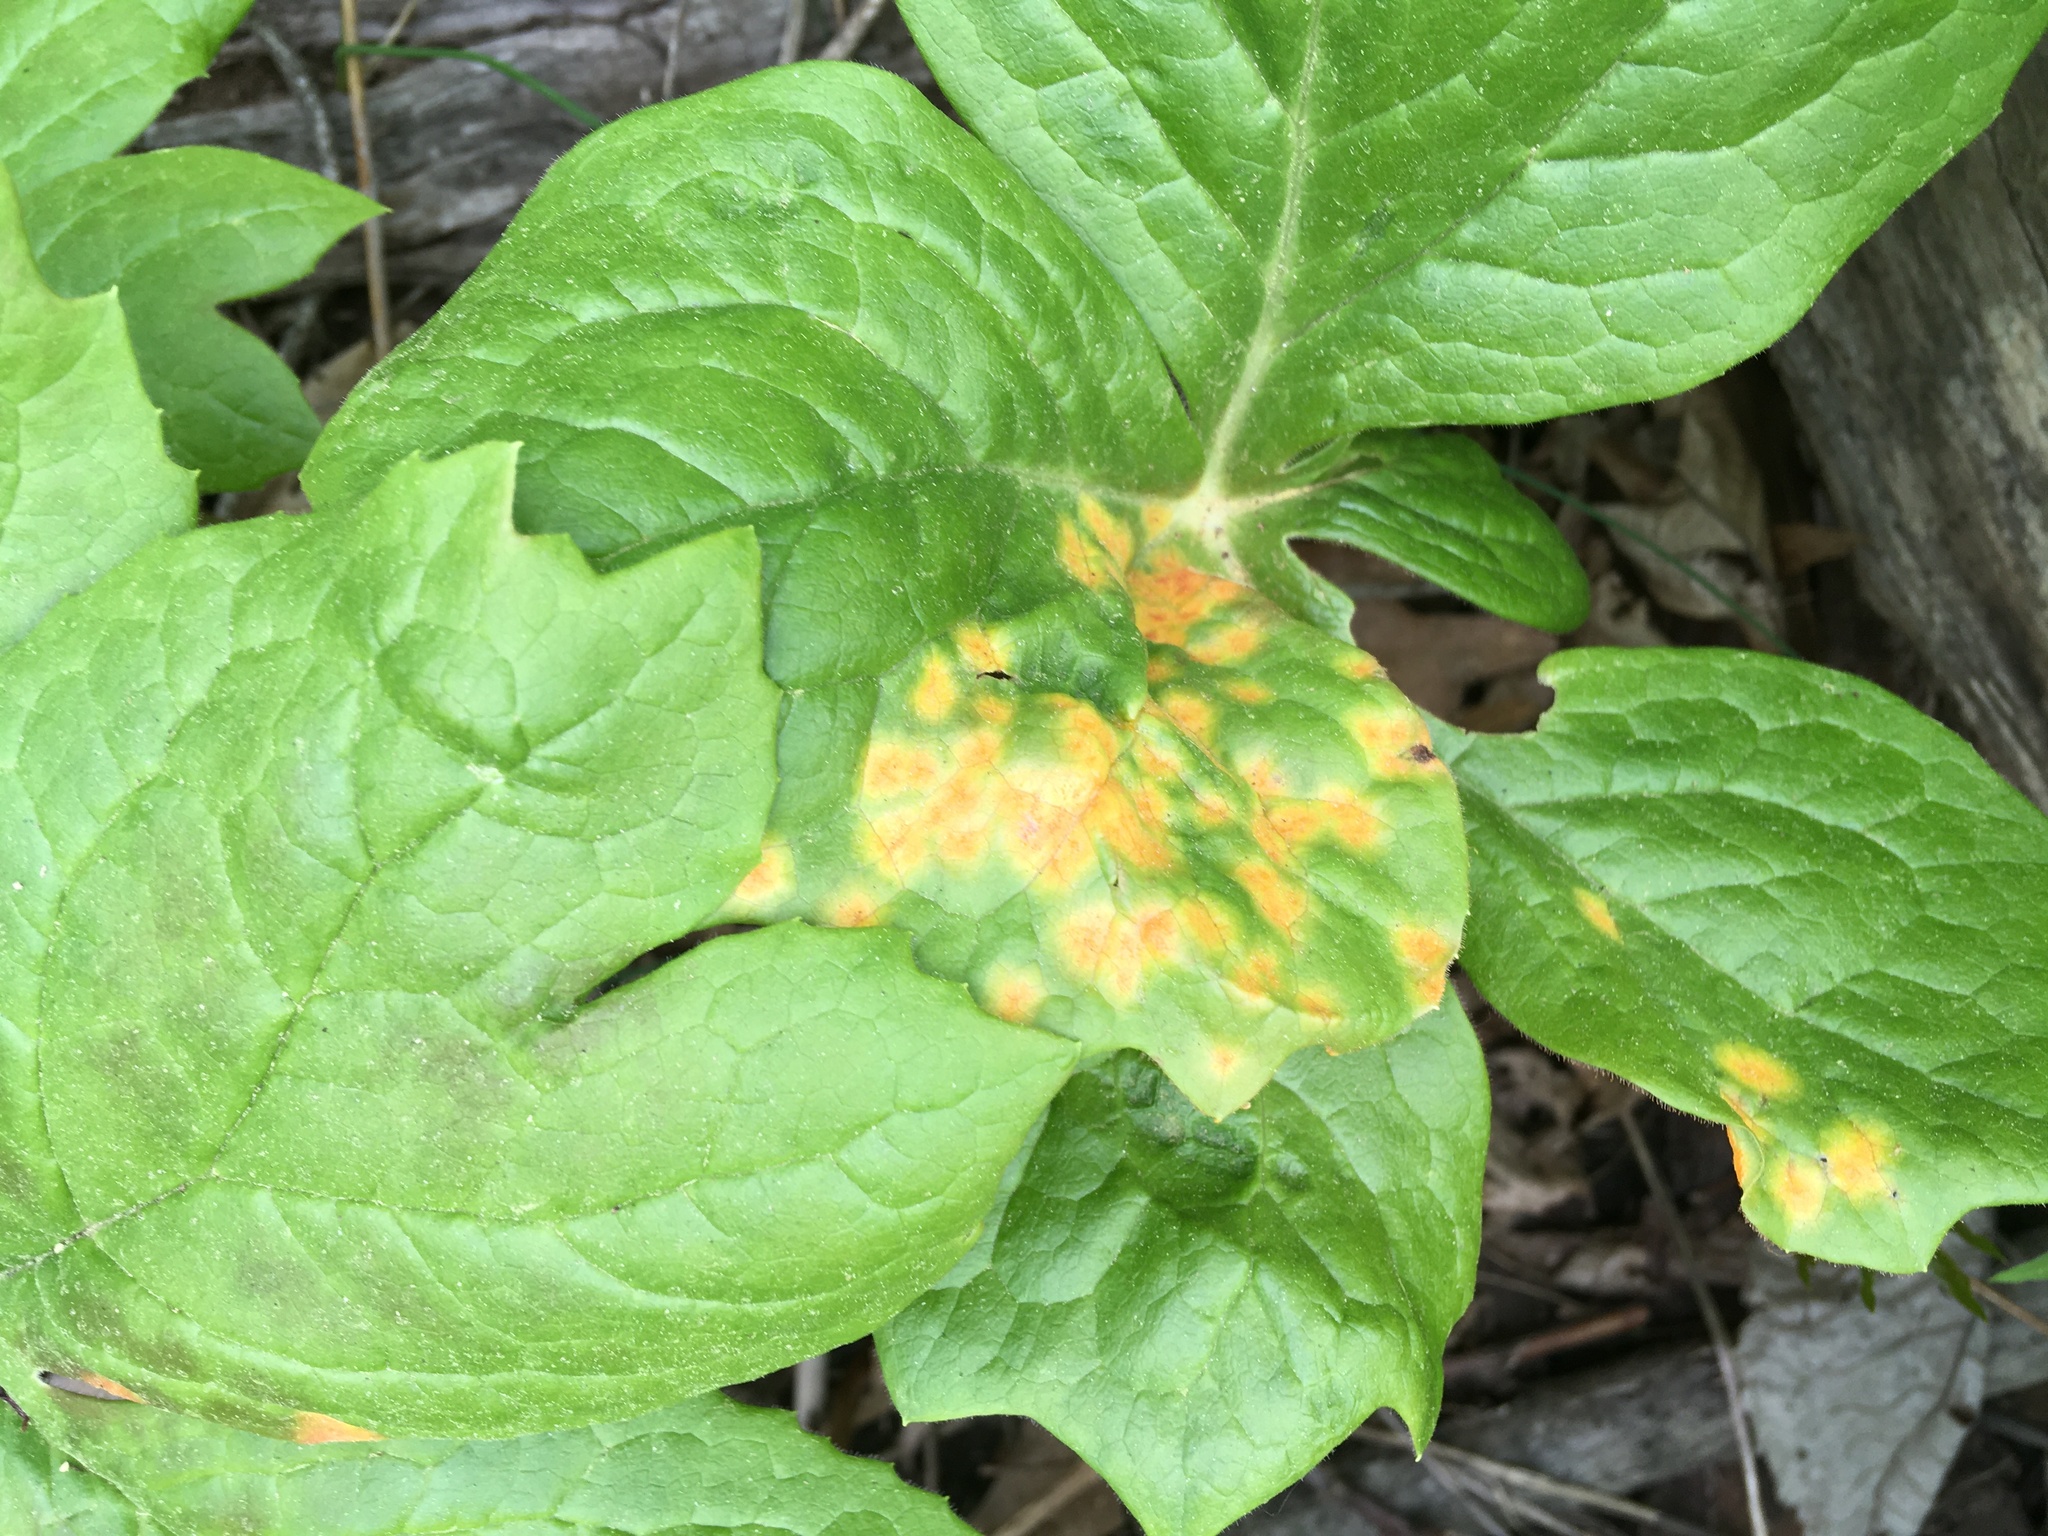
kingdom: Fungi
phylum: Basidiomycota
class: Pucciniomycetes
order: Pucciniales
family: Pucciniaceae
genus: Puccinia
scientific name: Puccinia podophylli
